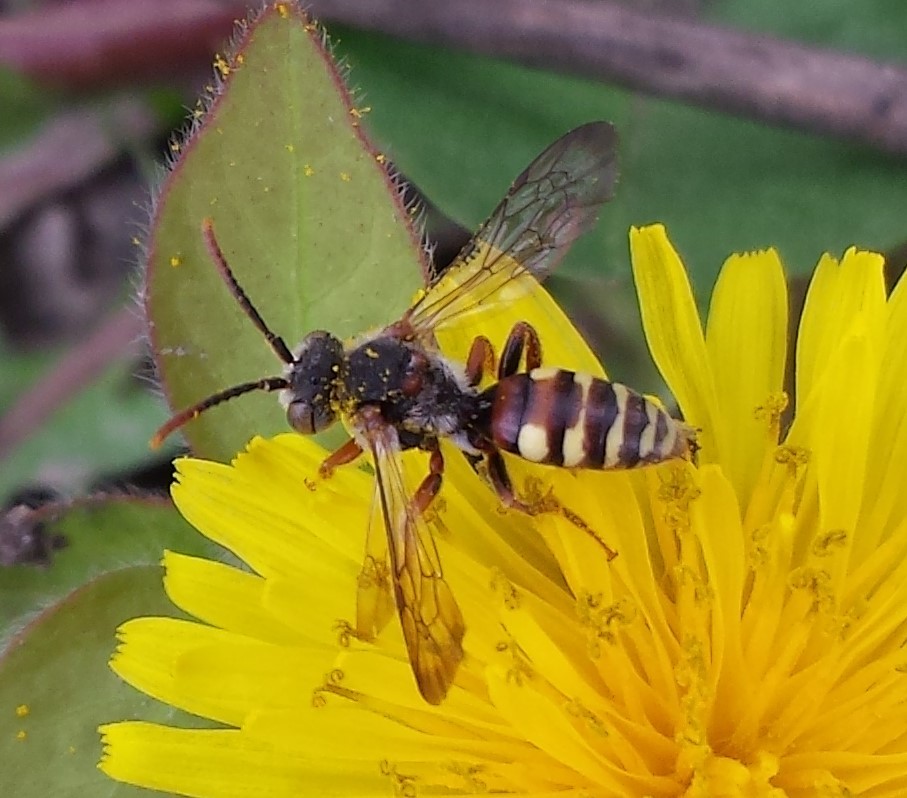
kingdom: Animalia
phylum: Arthropoda
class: Insecta
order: Hymenoptera
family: Apidae
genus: Nomada
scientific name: Nomada denticulata
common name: Denticulate nomad
